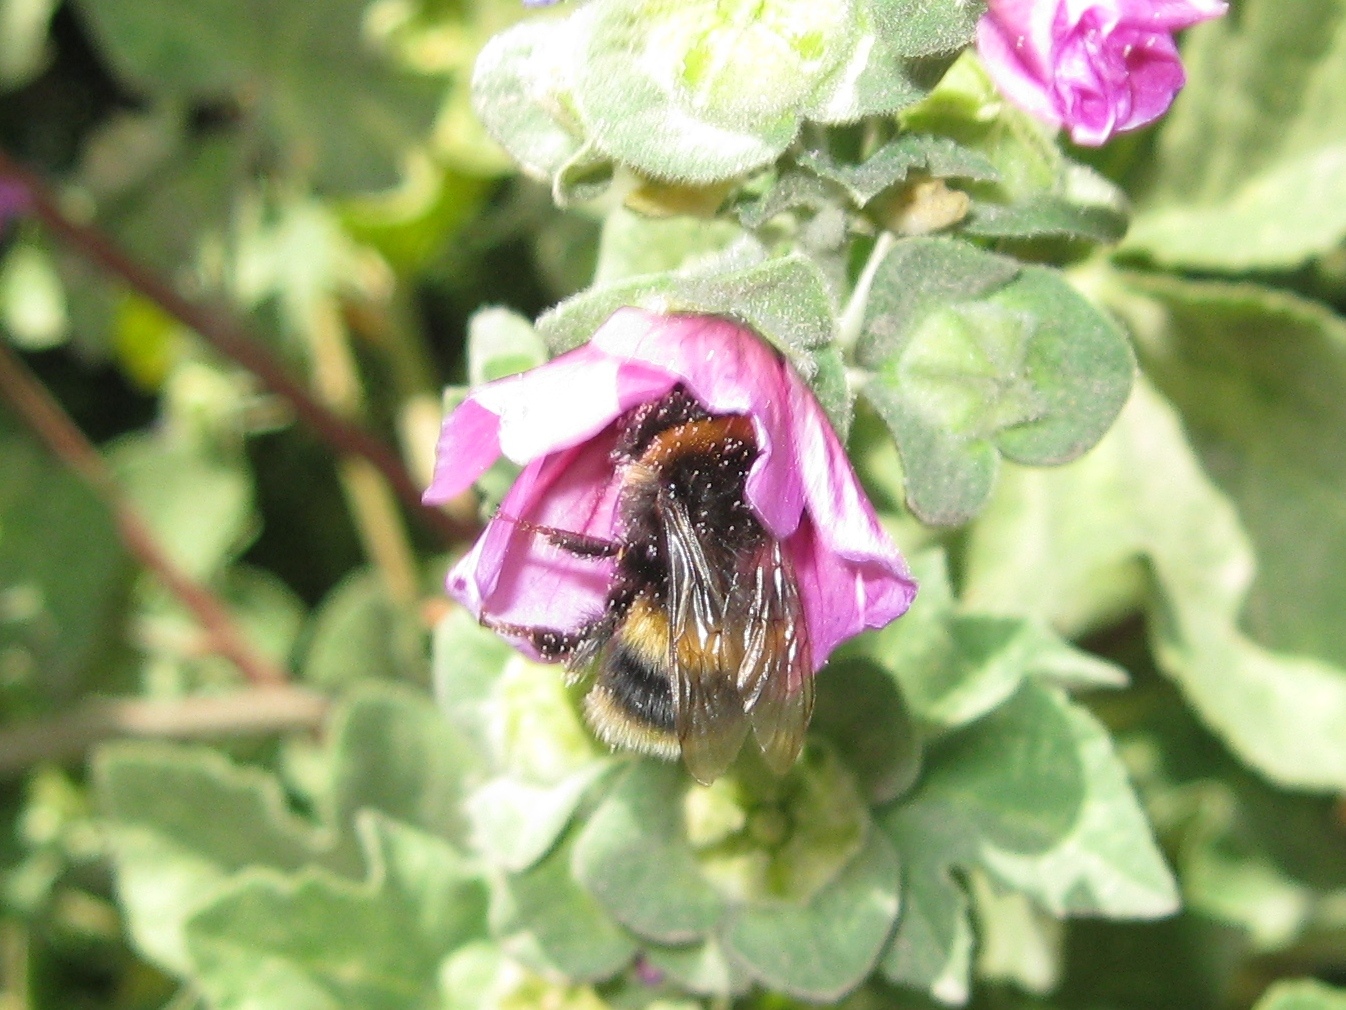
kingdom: Animalia
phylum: Arthropoda
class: Insecta
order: Hymenoptera
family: Apidae
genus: Bombus
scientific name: Bombus terrestris
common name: Buff-tailed bumblebee
